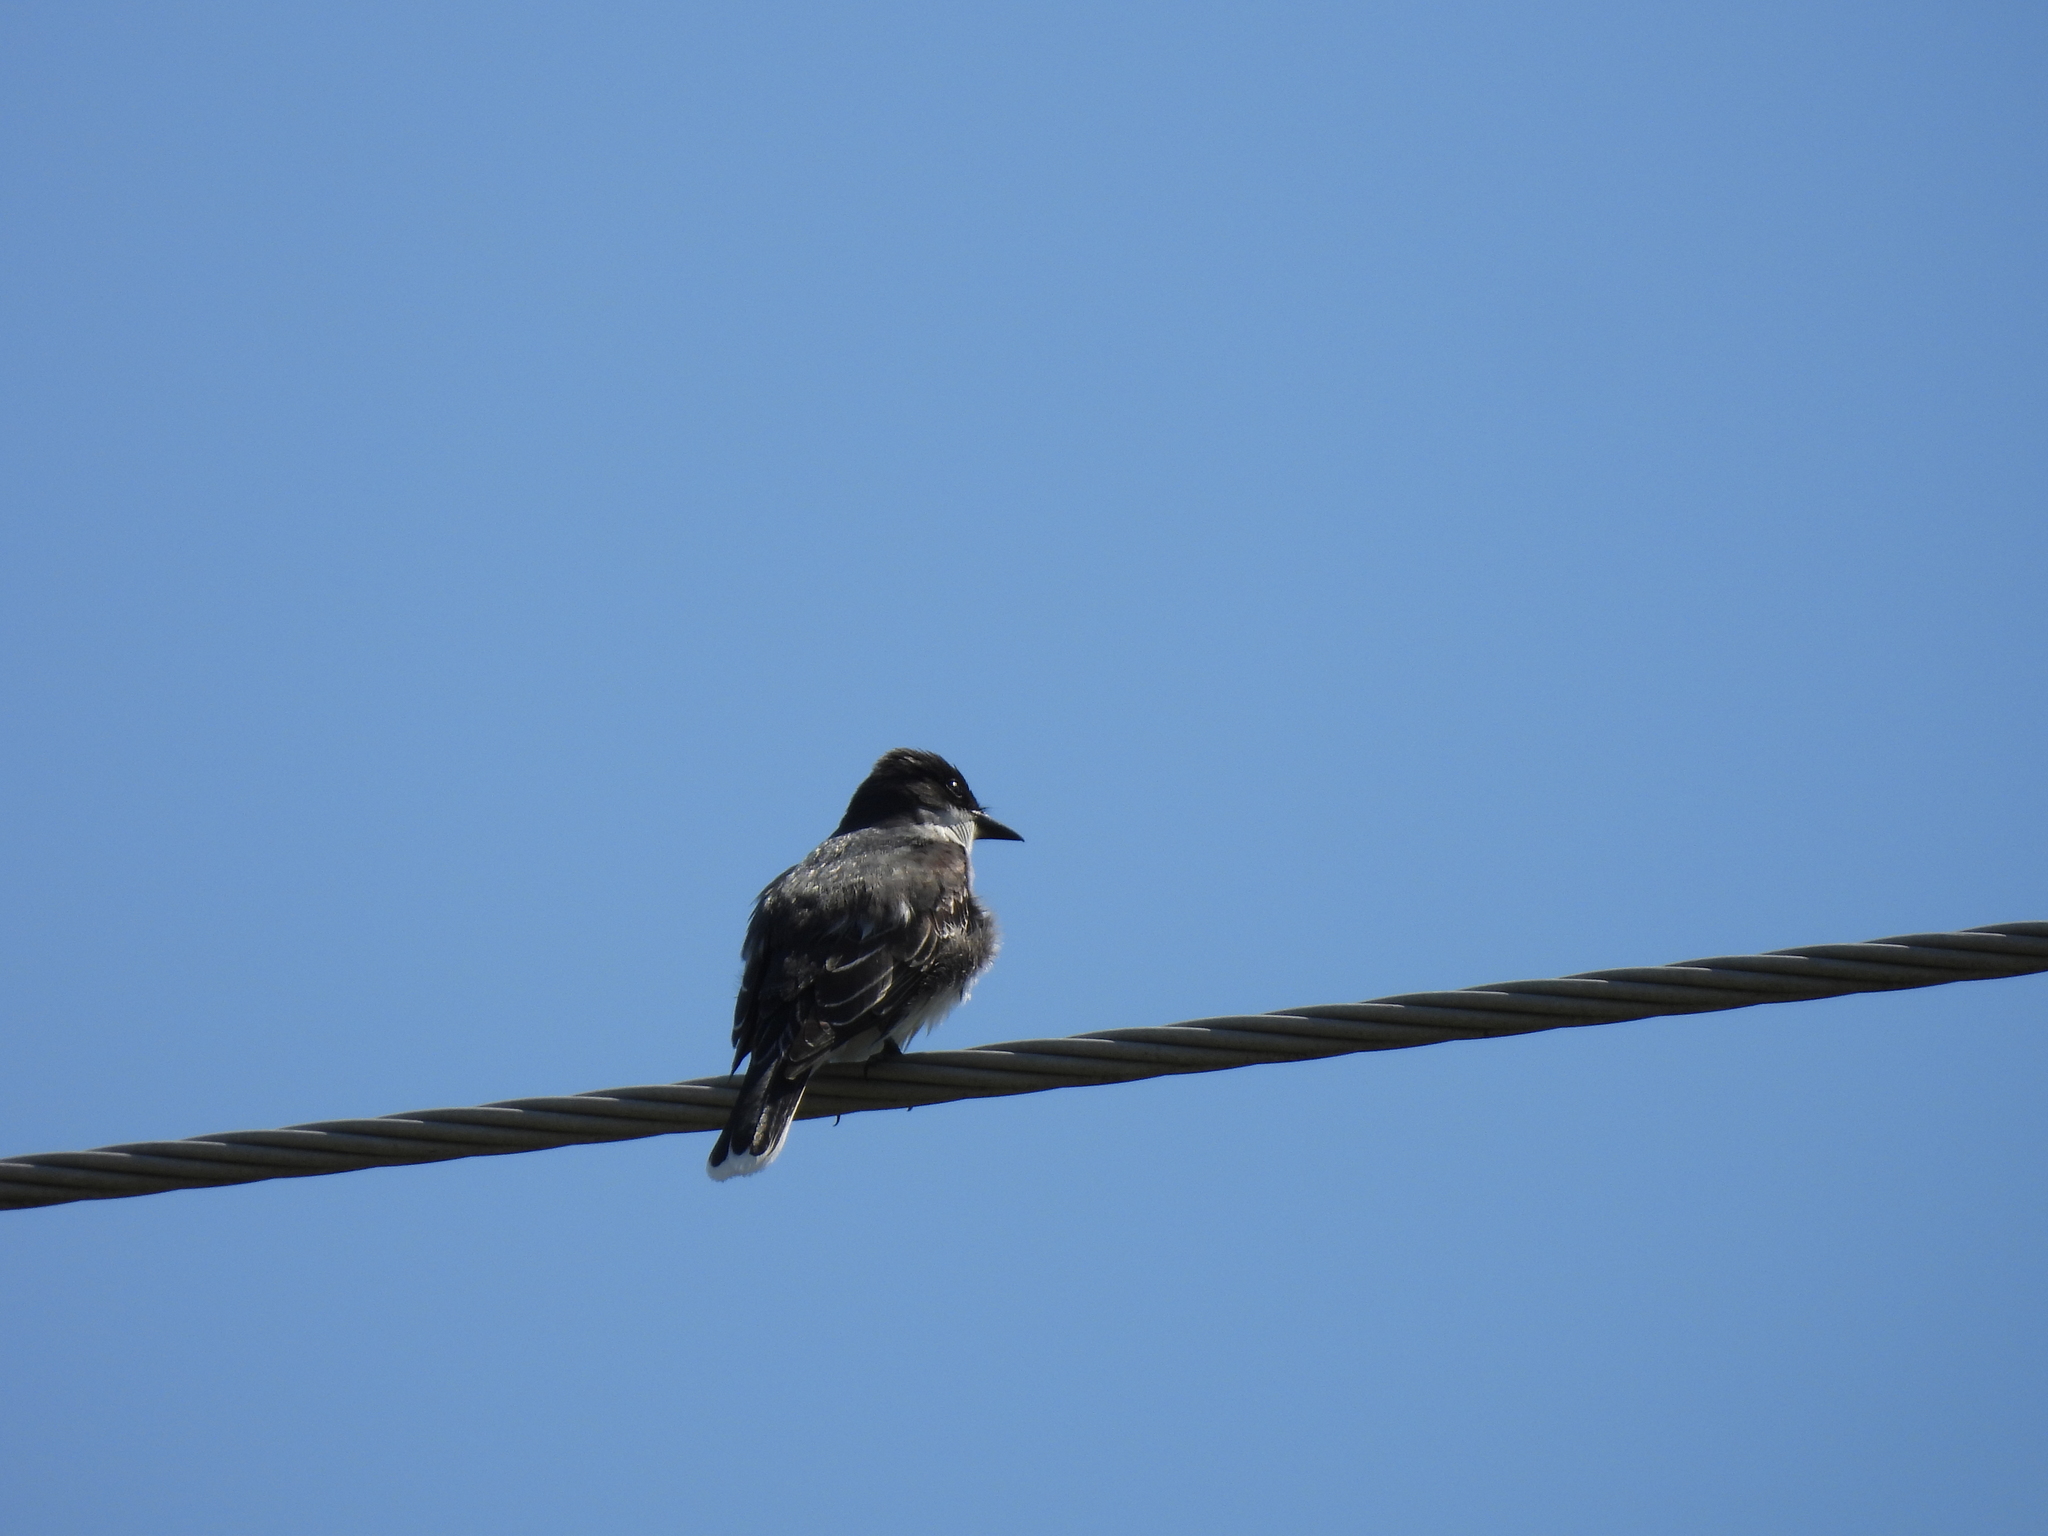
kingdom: Animalia
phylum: Chordata
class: Aves
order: Passeriformes
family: Tyrannidae
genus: Tyrannus
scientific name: Tyrannus tyrannus
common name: Eastern kingbird
